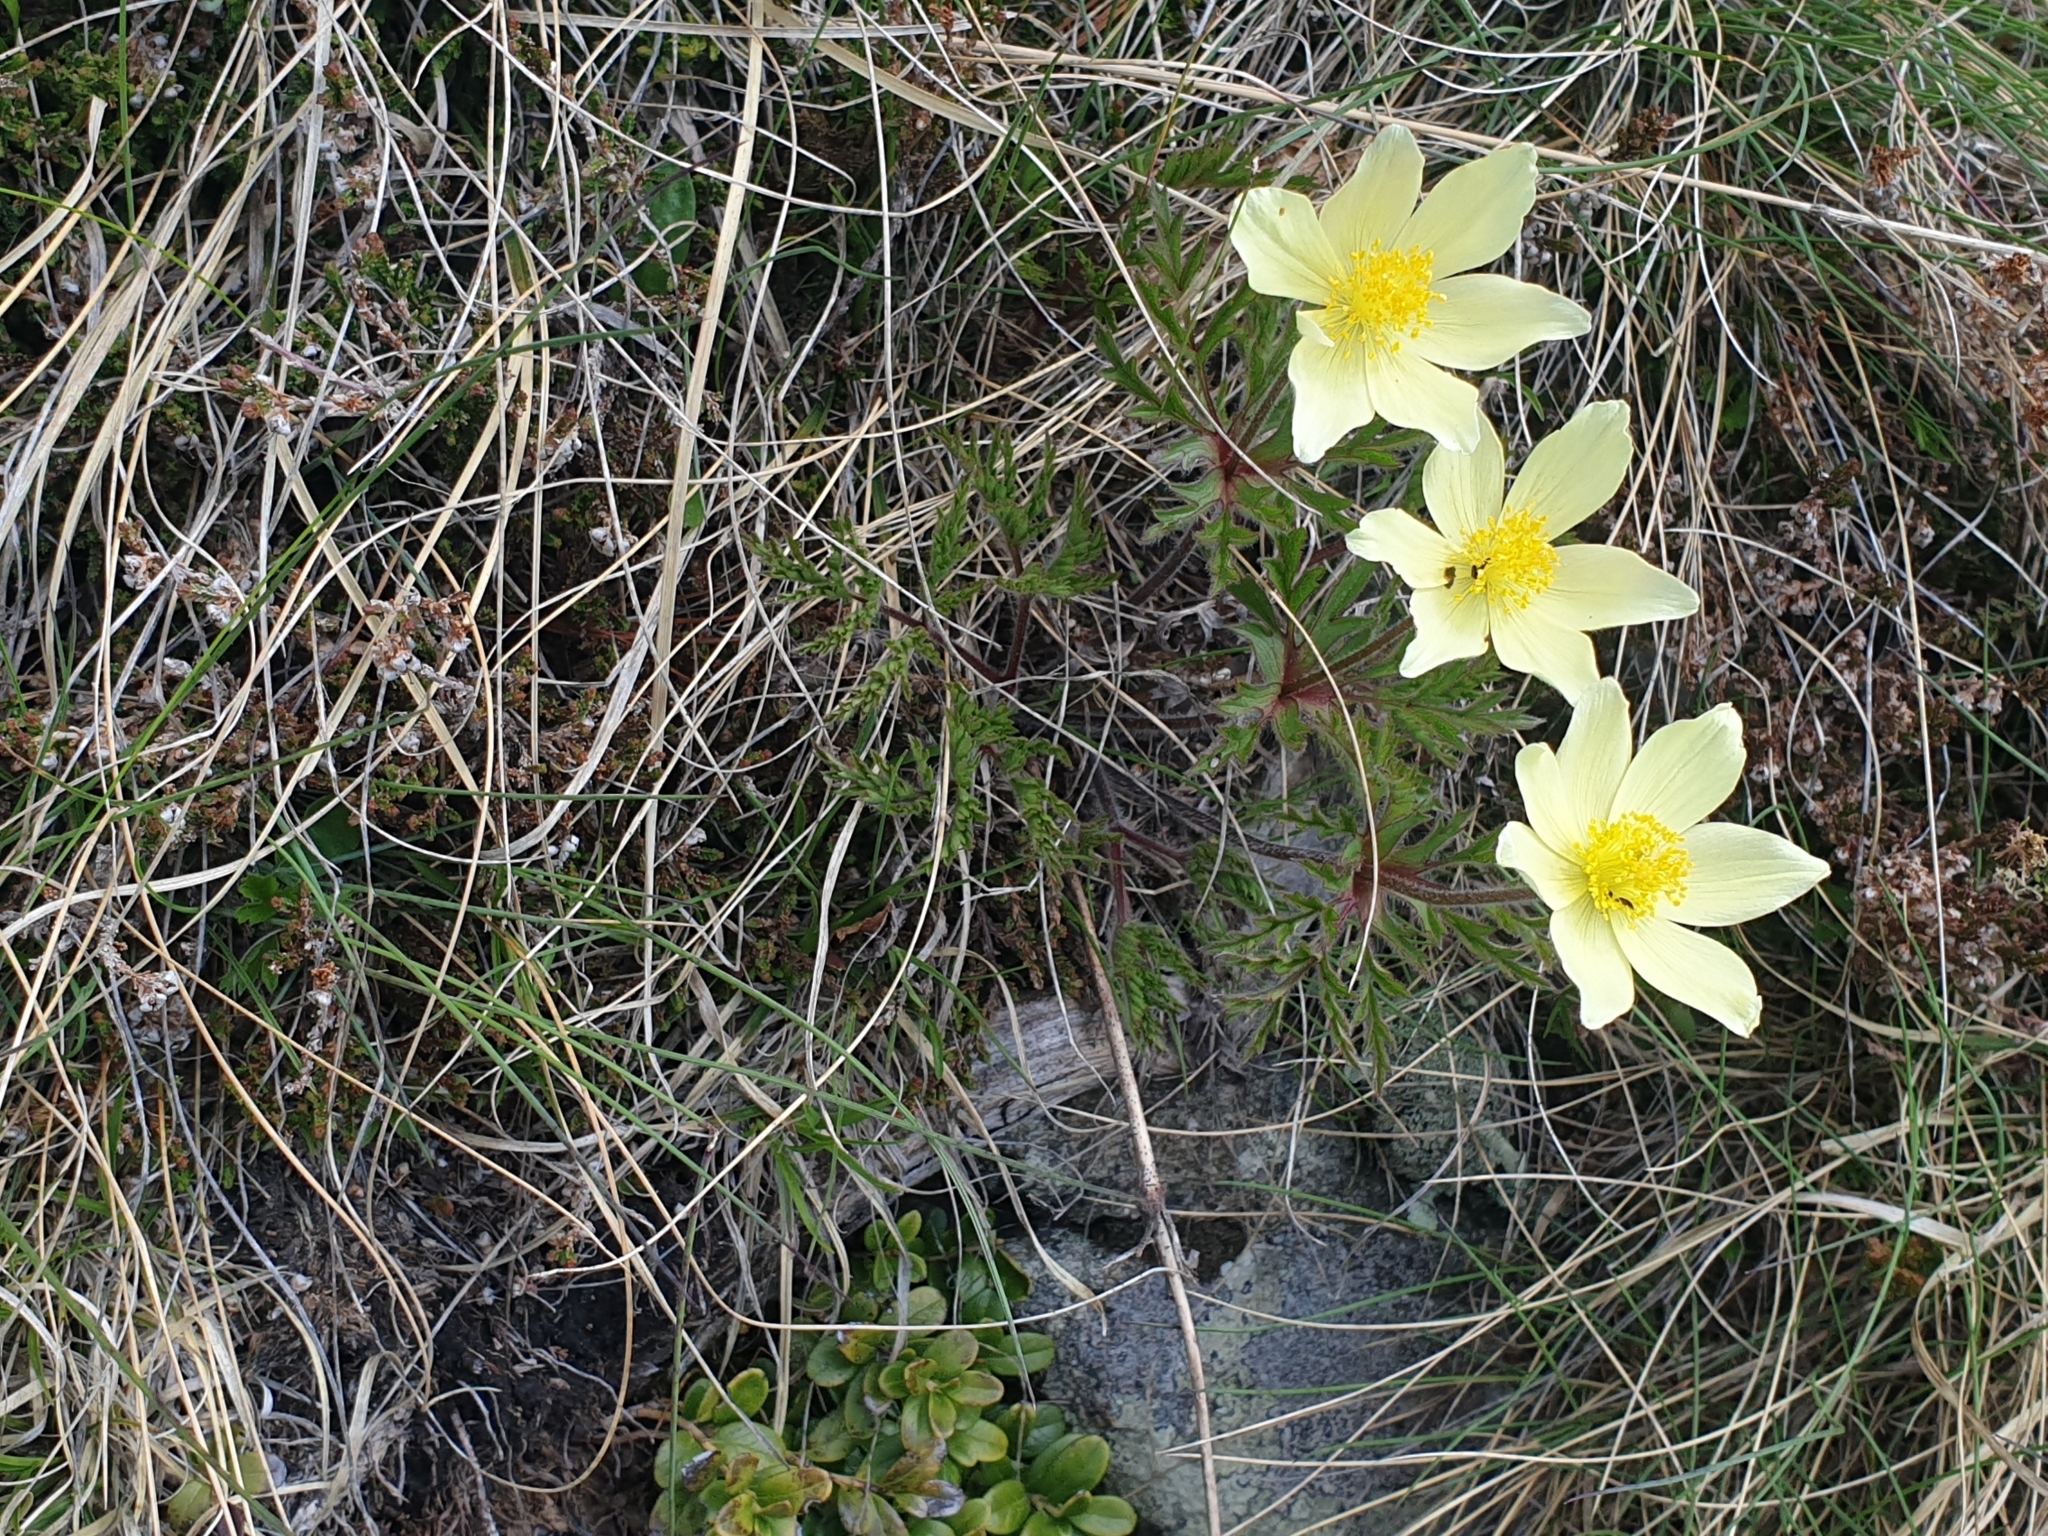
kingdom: Plantae
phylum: Tracheophyta
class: Magnoliopsida
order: Ranunculales
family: Ranunculaceae
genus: Pulsatilla
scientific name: Pulsatilla alpina
